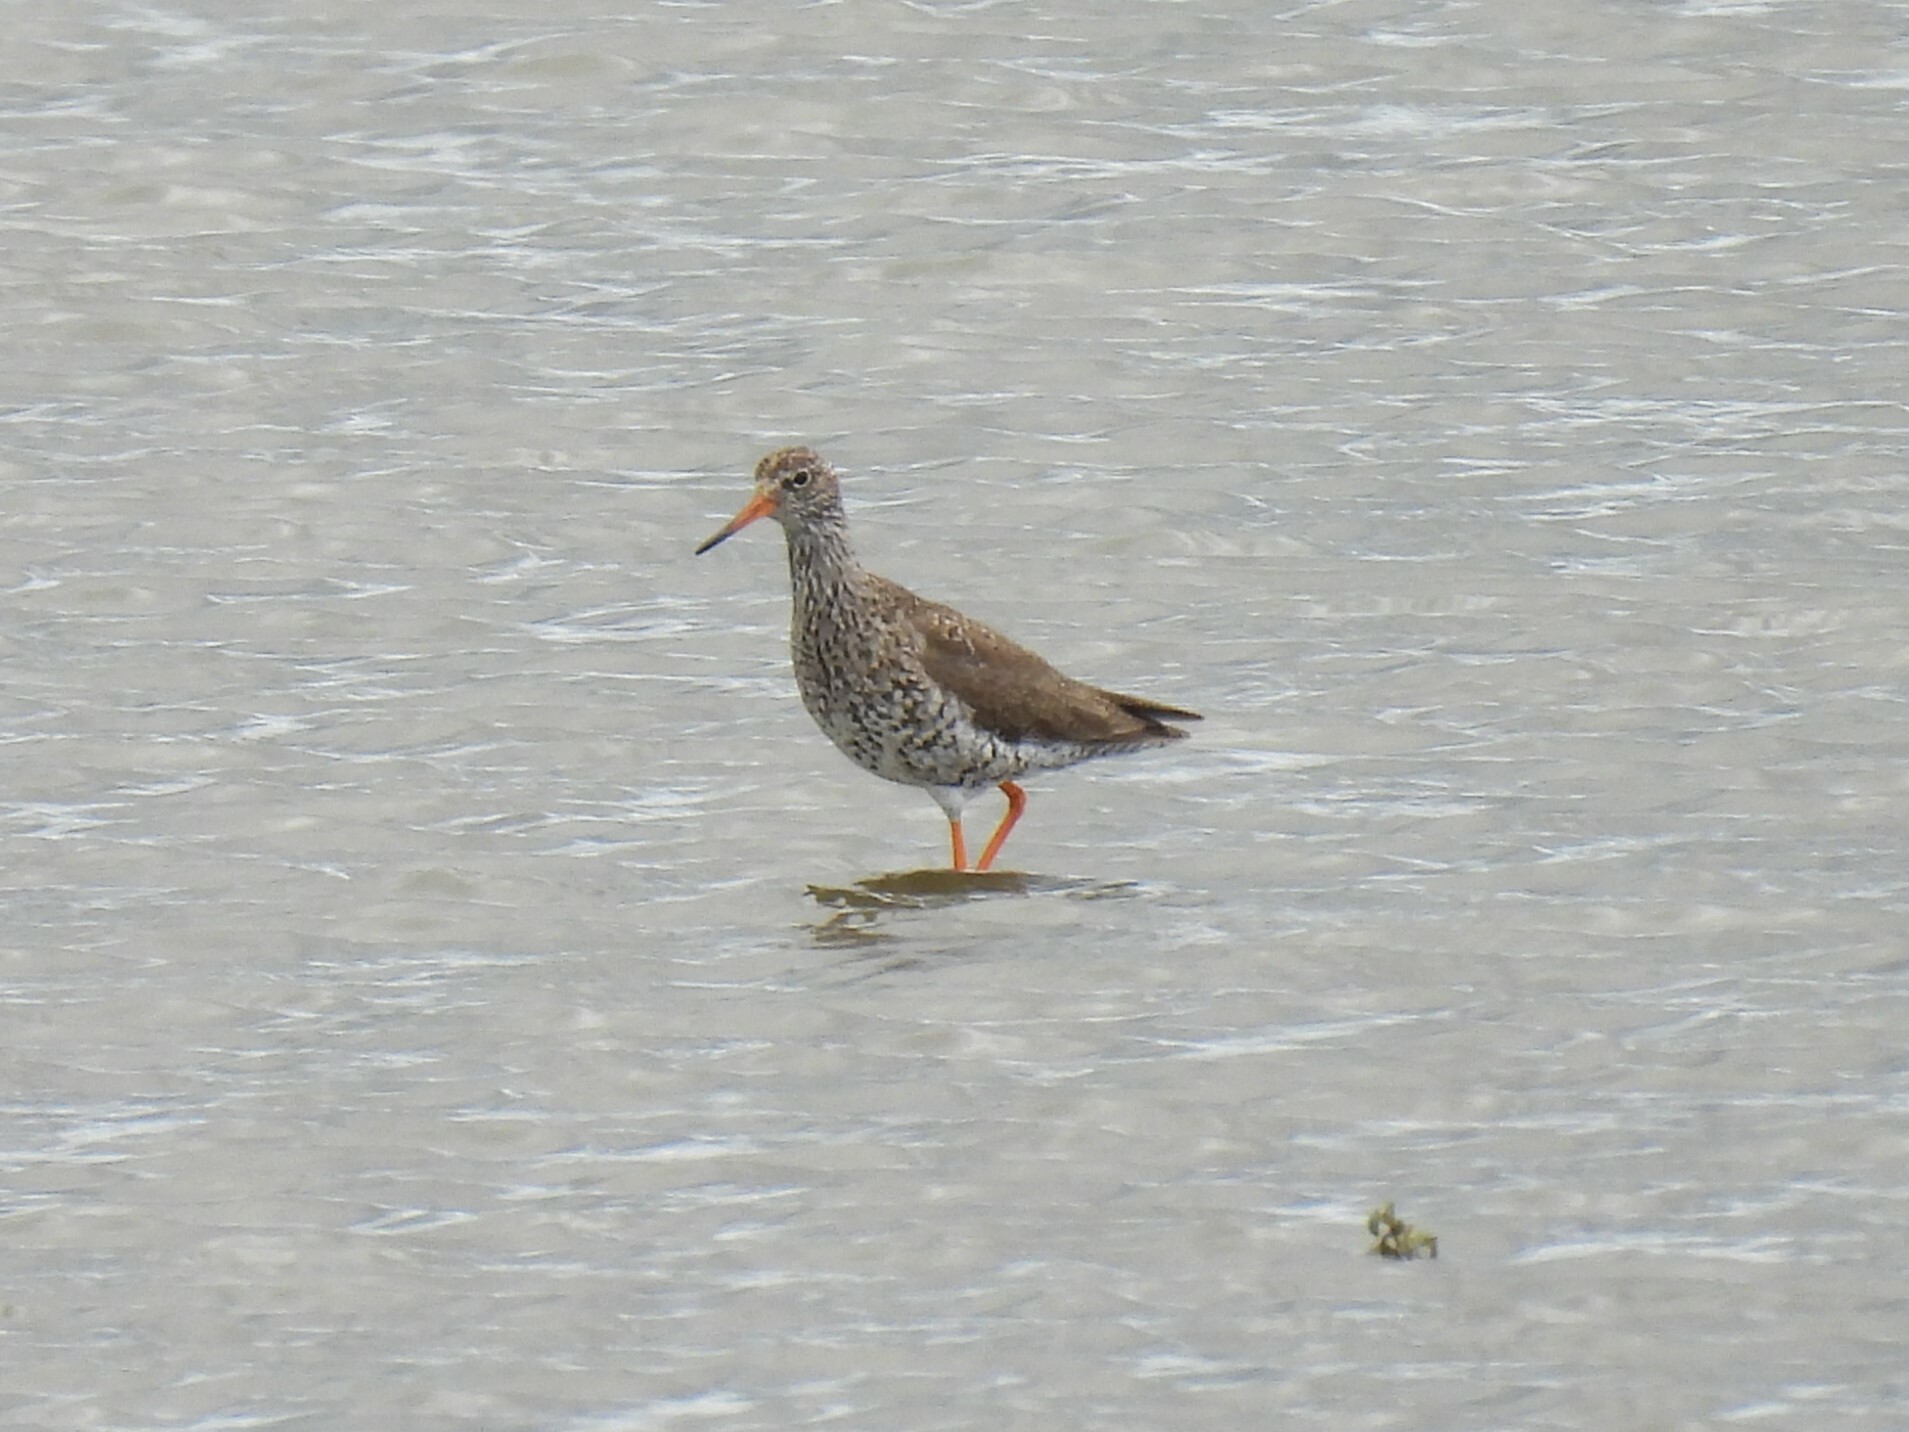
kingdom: Animalia
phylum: Chordata
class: Aves
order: Charadriiformes
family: Scolopacidae
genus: Tringa
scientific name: Tringa totanus
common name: Common redshank
